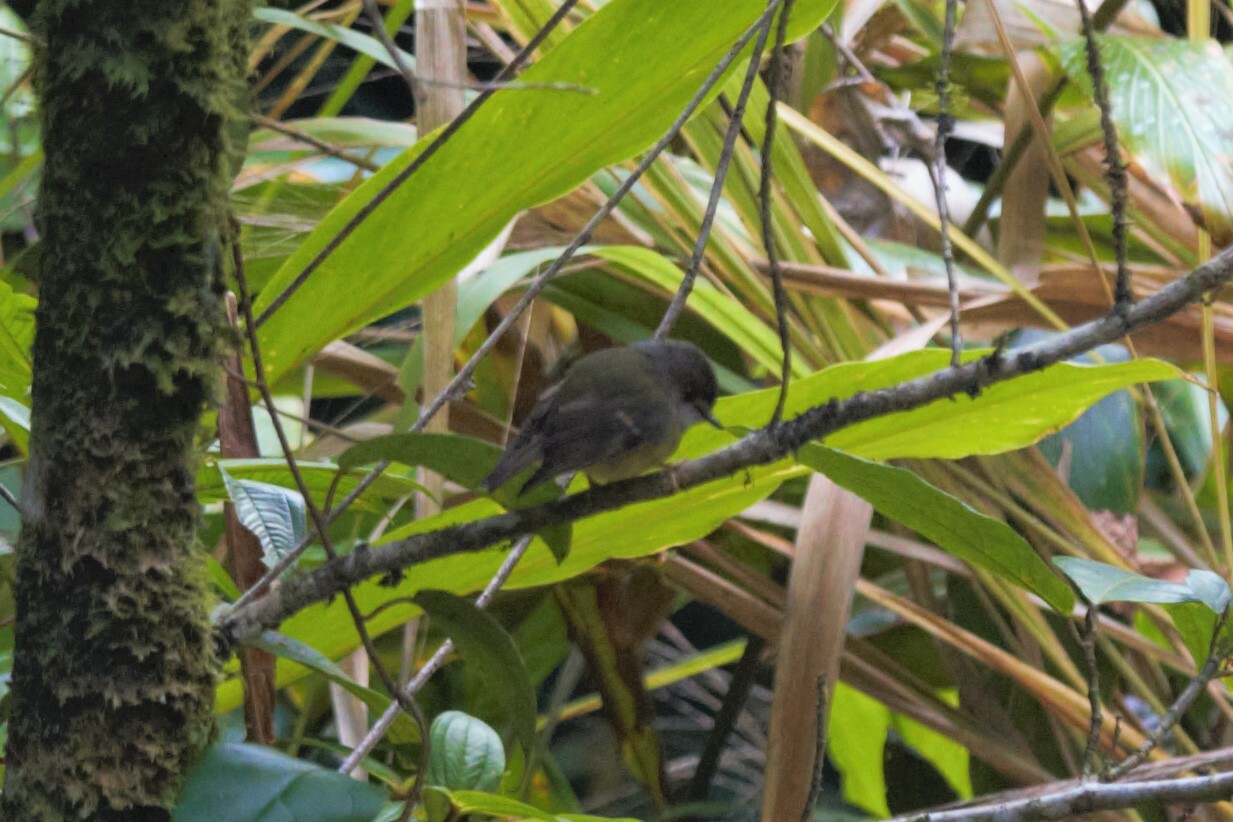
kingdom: Animalia
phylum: Chordata
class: Aves
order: Passeriformes
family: Petroicidae
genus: Eopsaltria
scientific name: Eopsaltria
